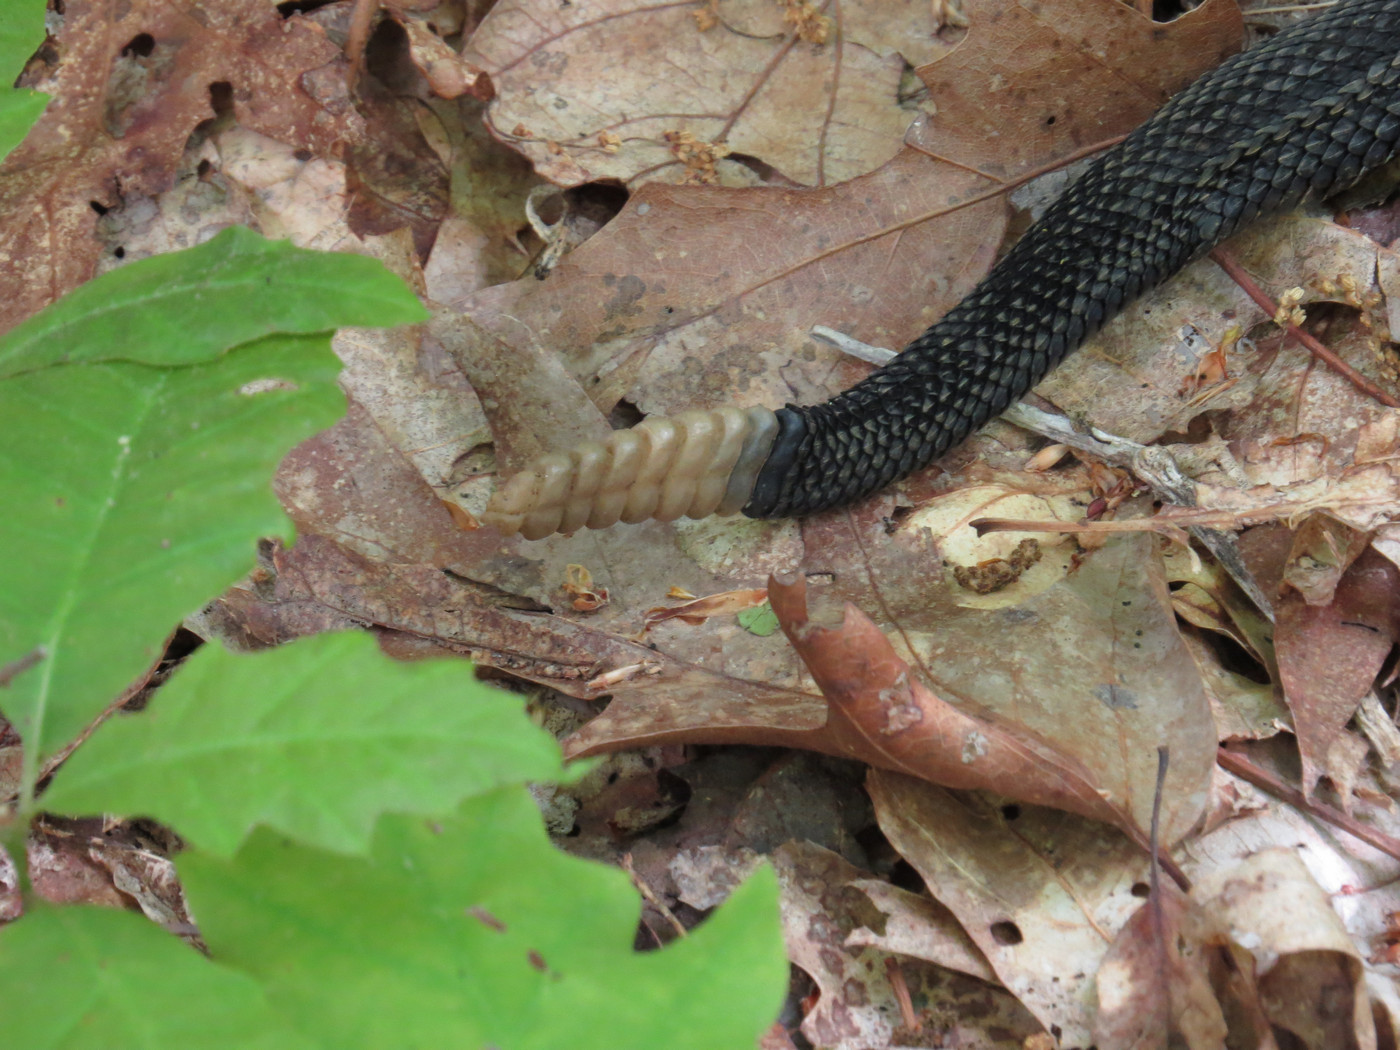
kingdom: Animalia
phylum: Chordata
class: Squamata
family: Viperidae
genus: Crotalus
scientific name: Crotalus horridus
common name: Timber rattlesnake
